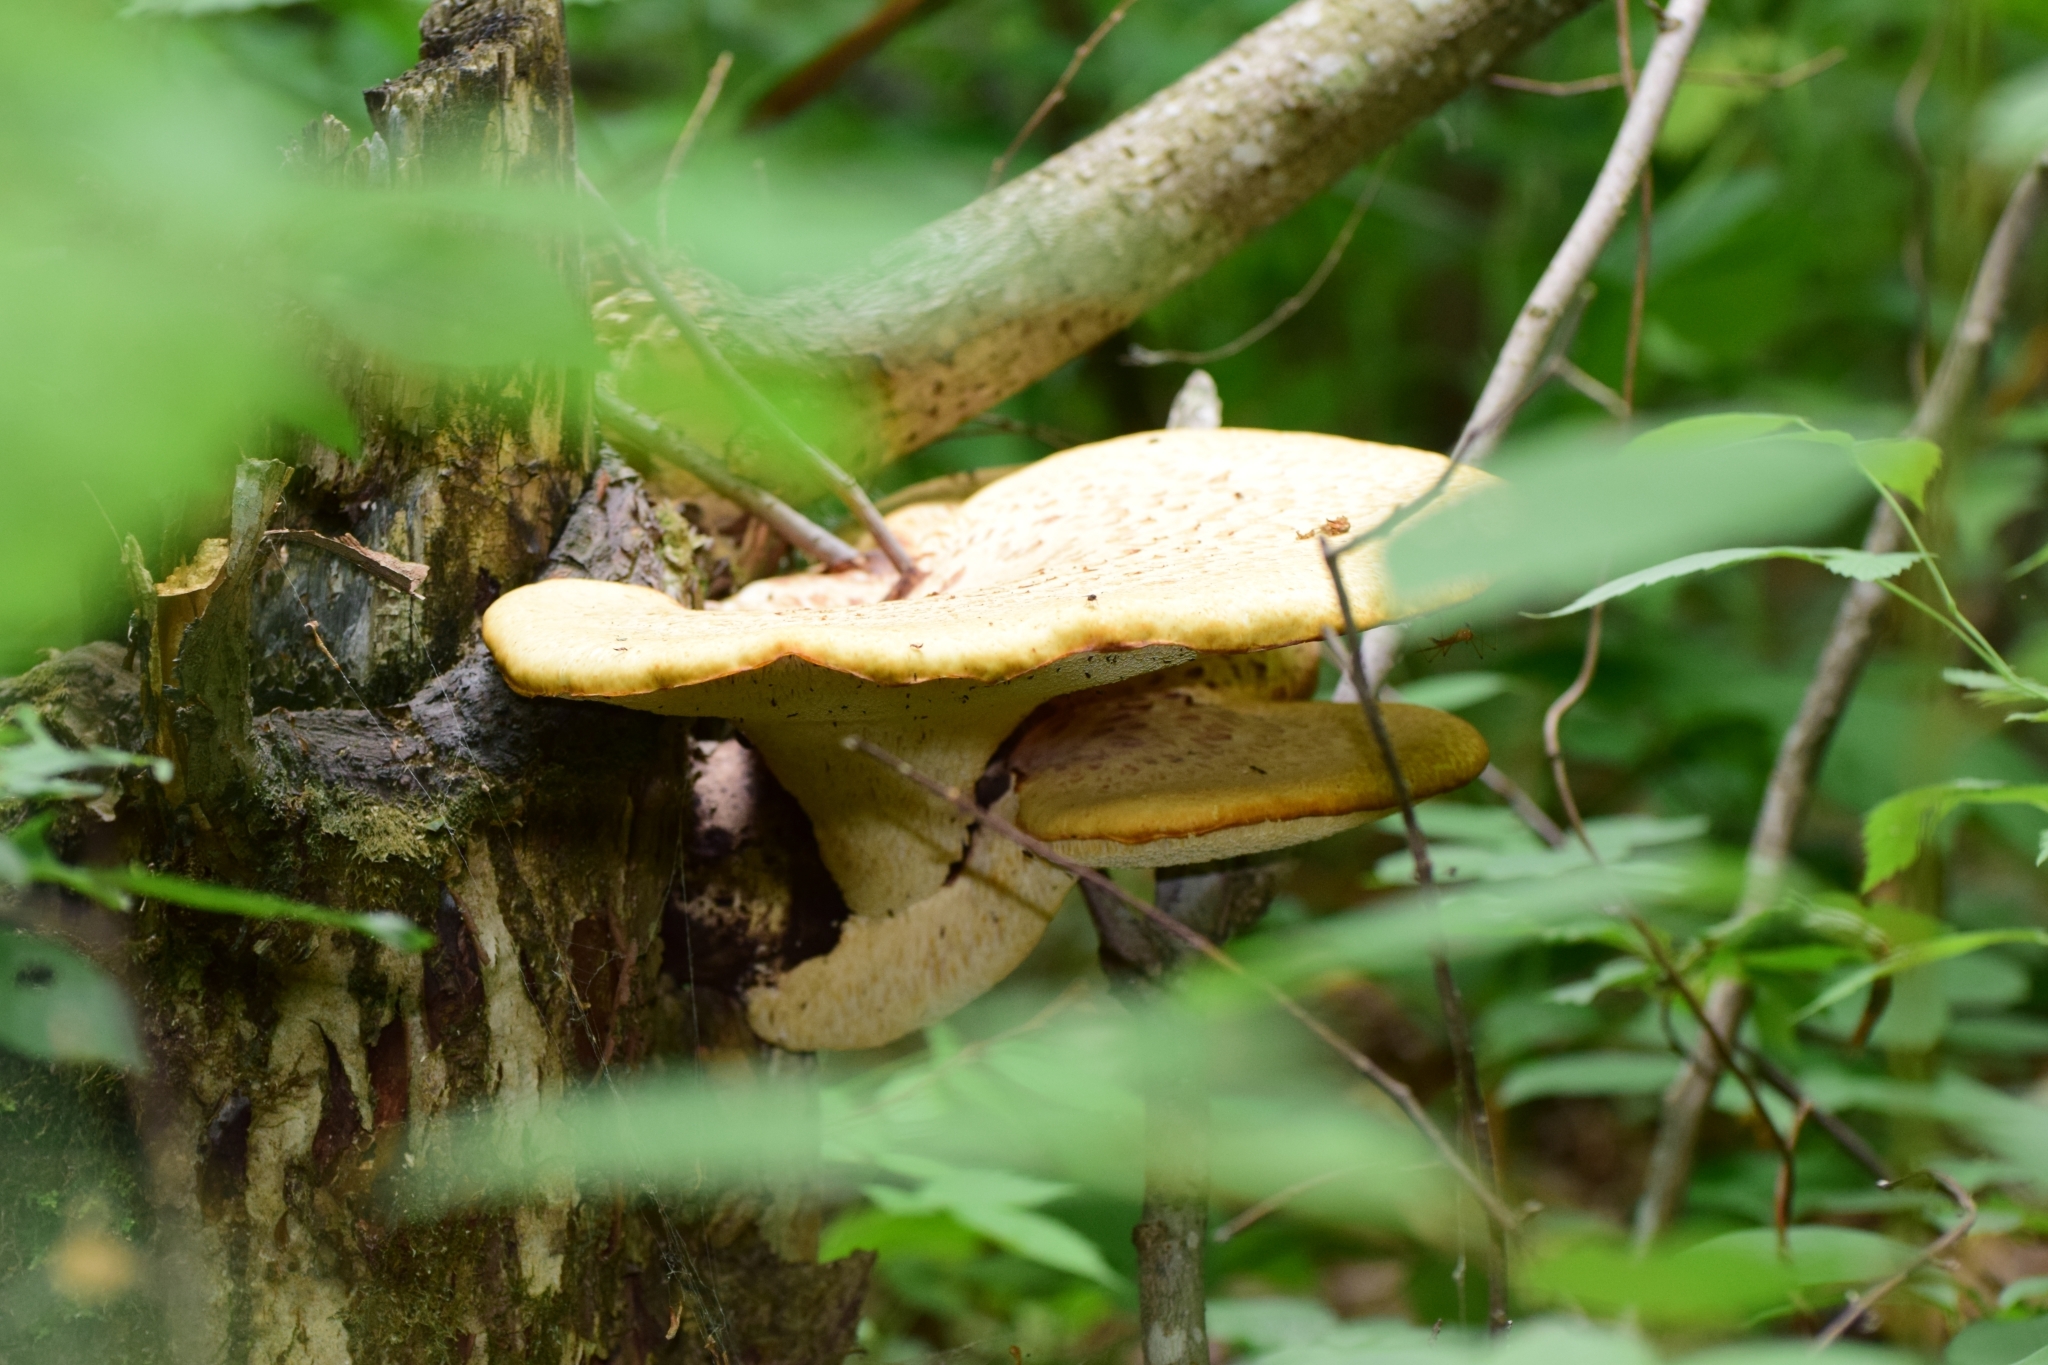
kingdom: Fungi
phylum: Basidiomycota
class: Agaricomycetes
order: Polyporales
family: Polyporaceae
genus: Cerioporus
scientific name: Cerioporus squamosus
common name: Dryad's saddle
